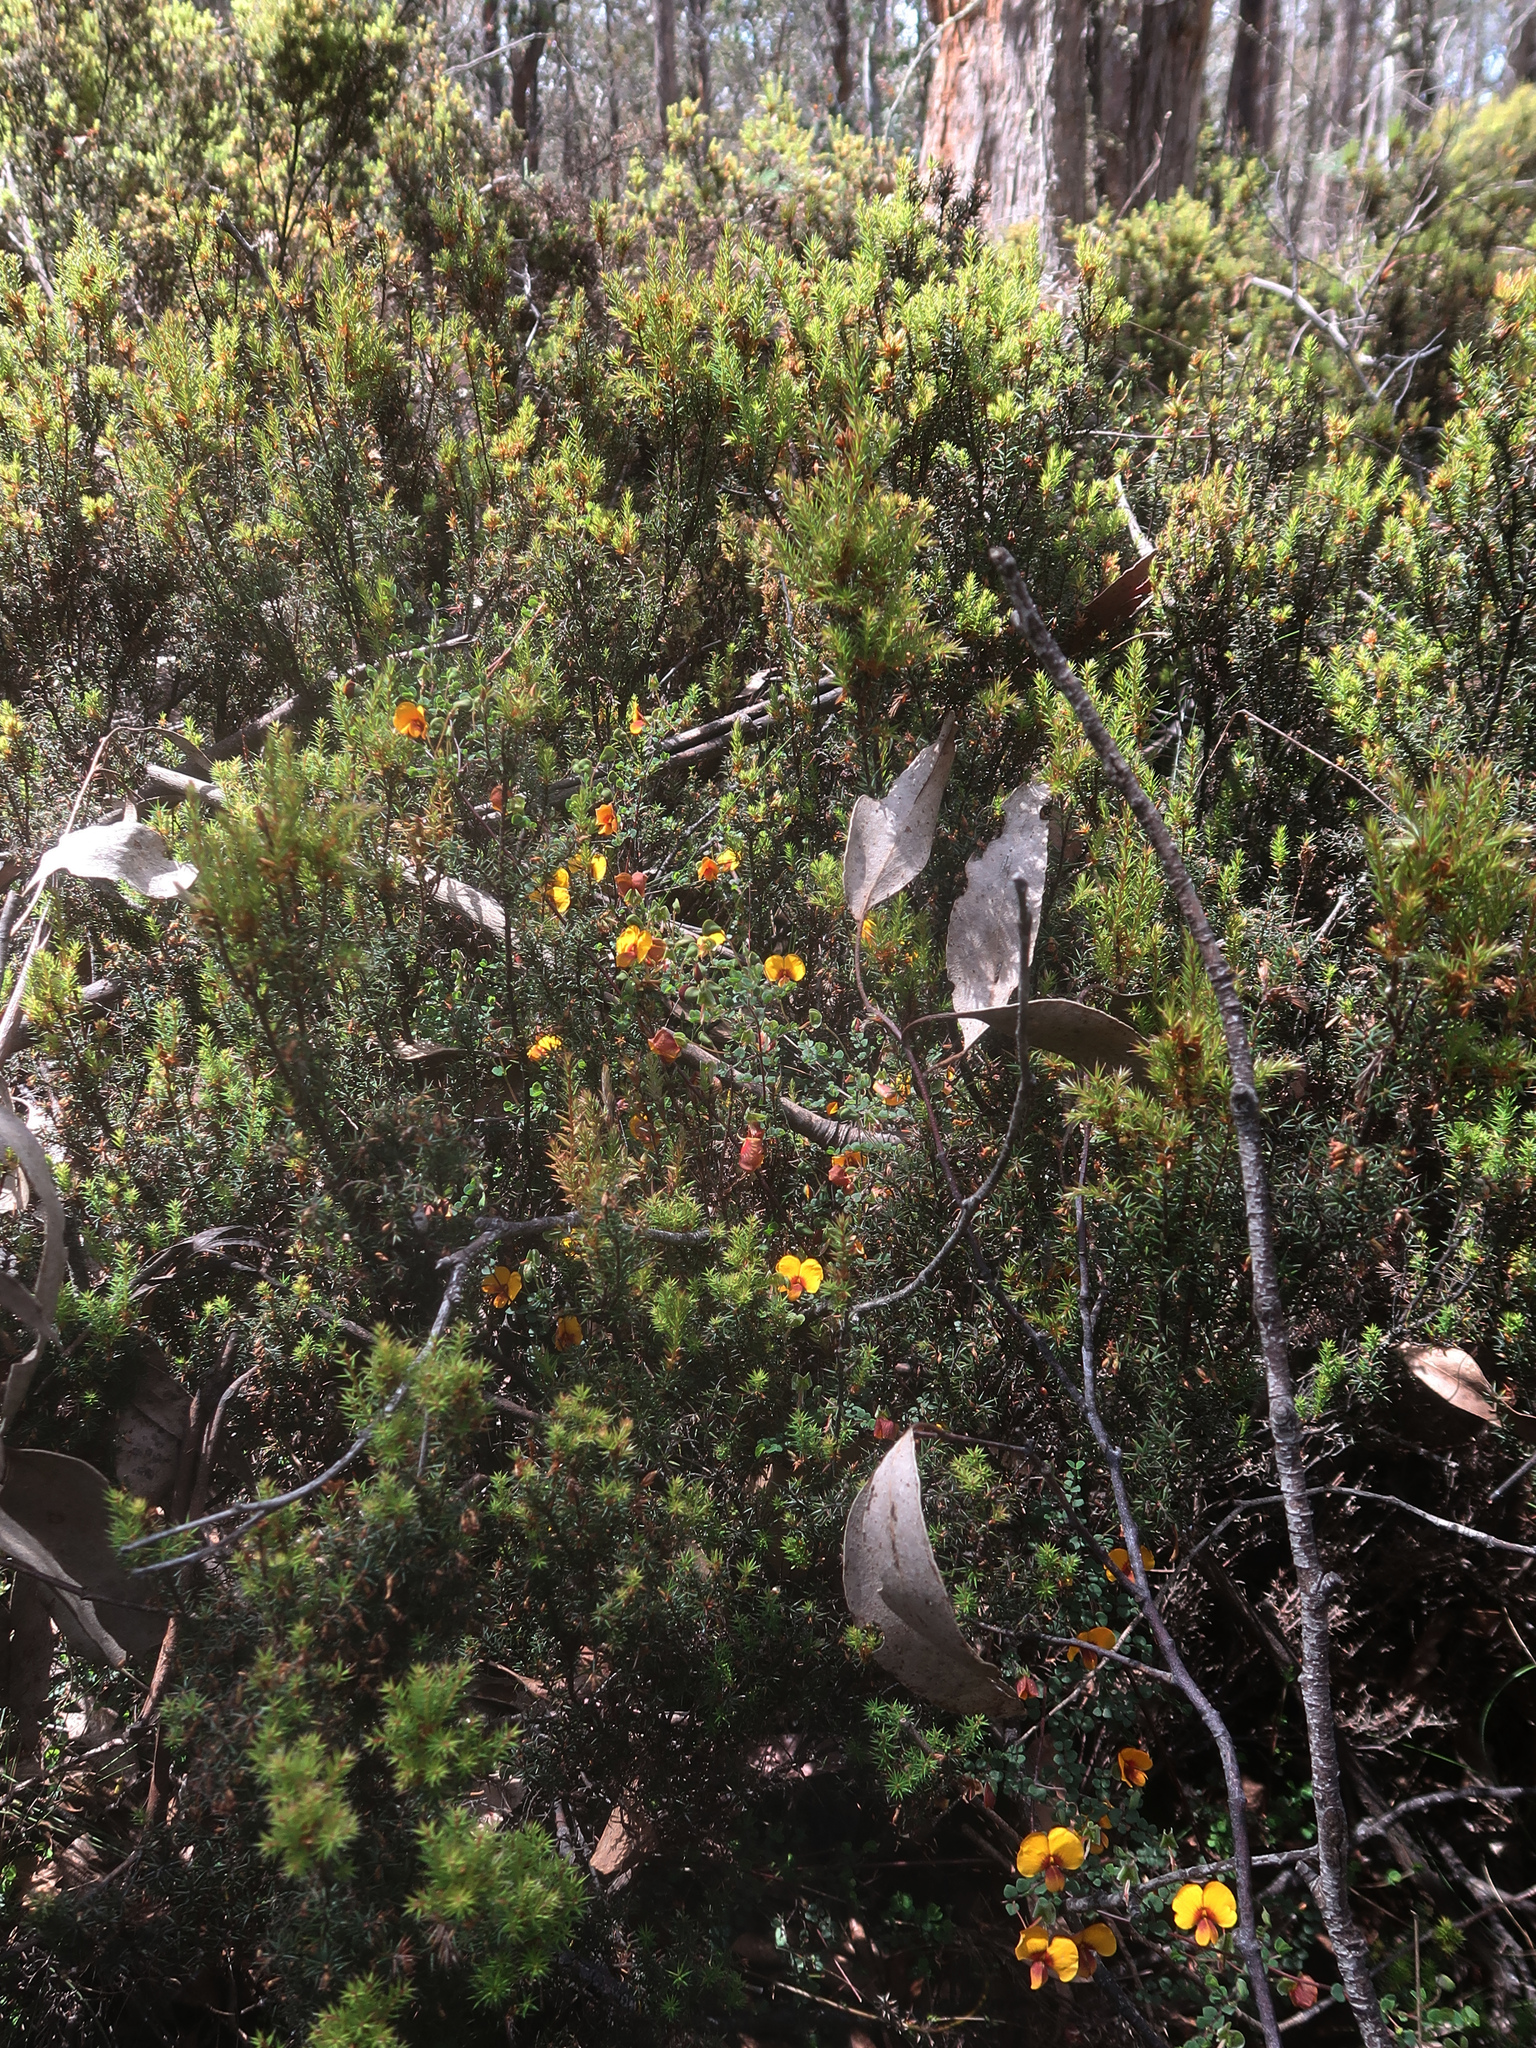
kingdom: Plantae
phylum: Tracheophyta
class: Magnoliopsida
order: Fabales
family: Fabaceae
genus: Bossiaea
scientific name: Bossiaea hendersonii
